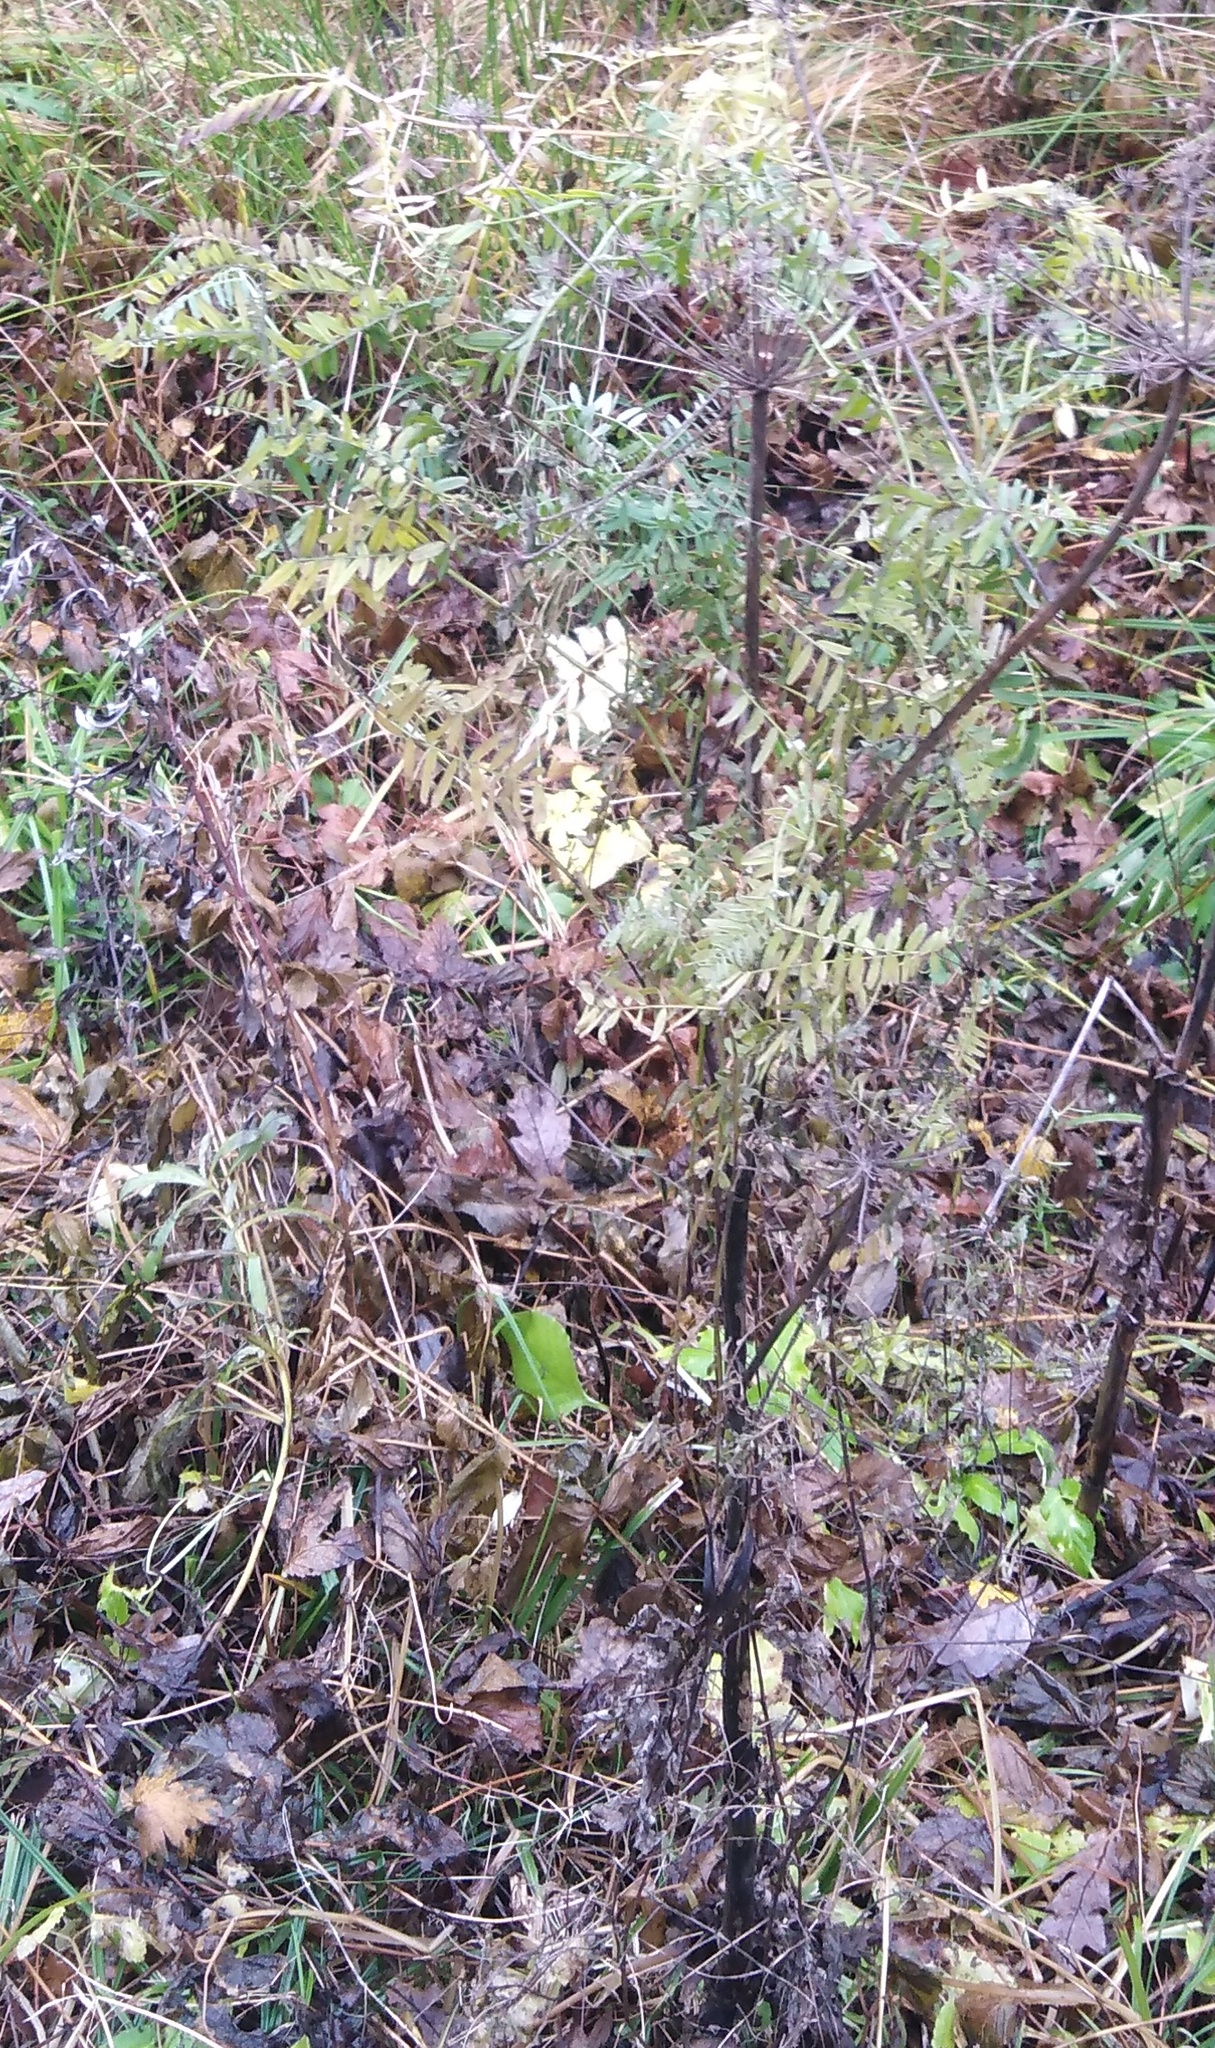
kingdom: Plantae
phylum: Tracheophyta
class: Magnoliopsida
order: Apiales
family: Apiaceae
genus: Angelica
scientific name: Angelica sylvestris
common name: Wild angelica
